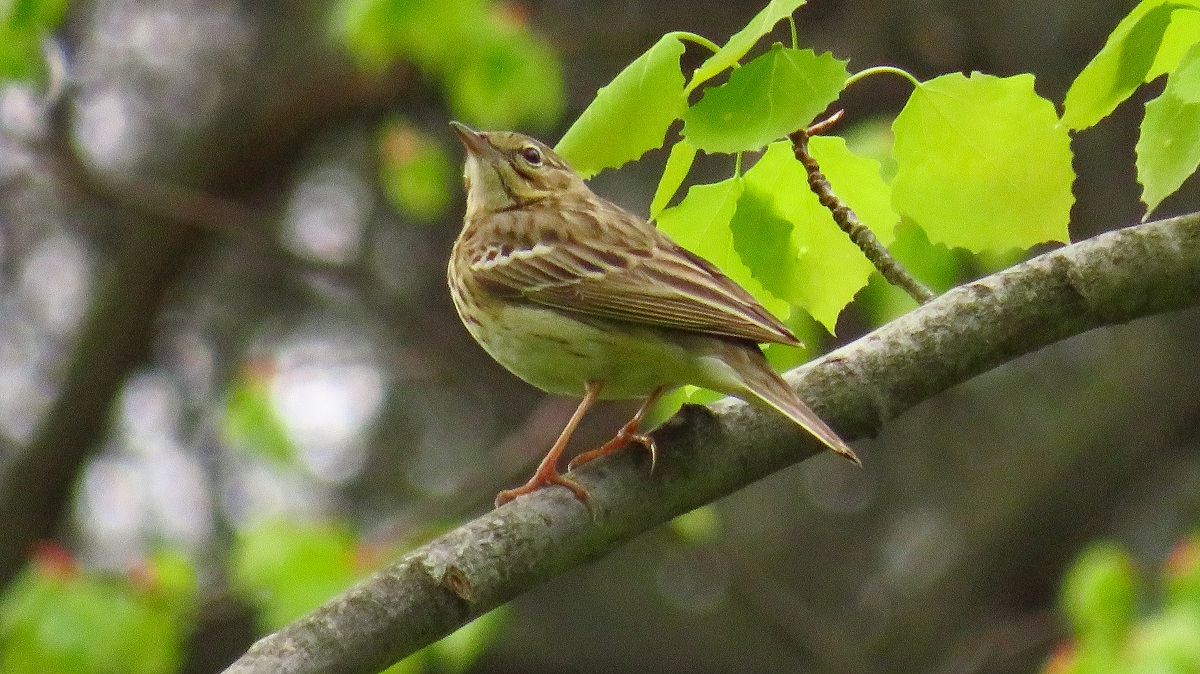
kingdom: Animalia
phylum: Chordata
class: Aves
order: Passeriformes
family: Motacillidae
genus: Anthus
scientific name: Anthus trivialis
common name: Tree pipit
